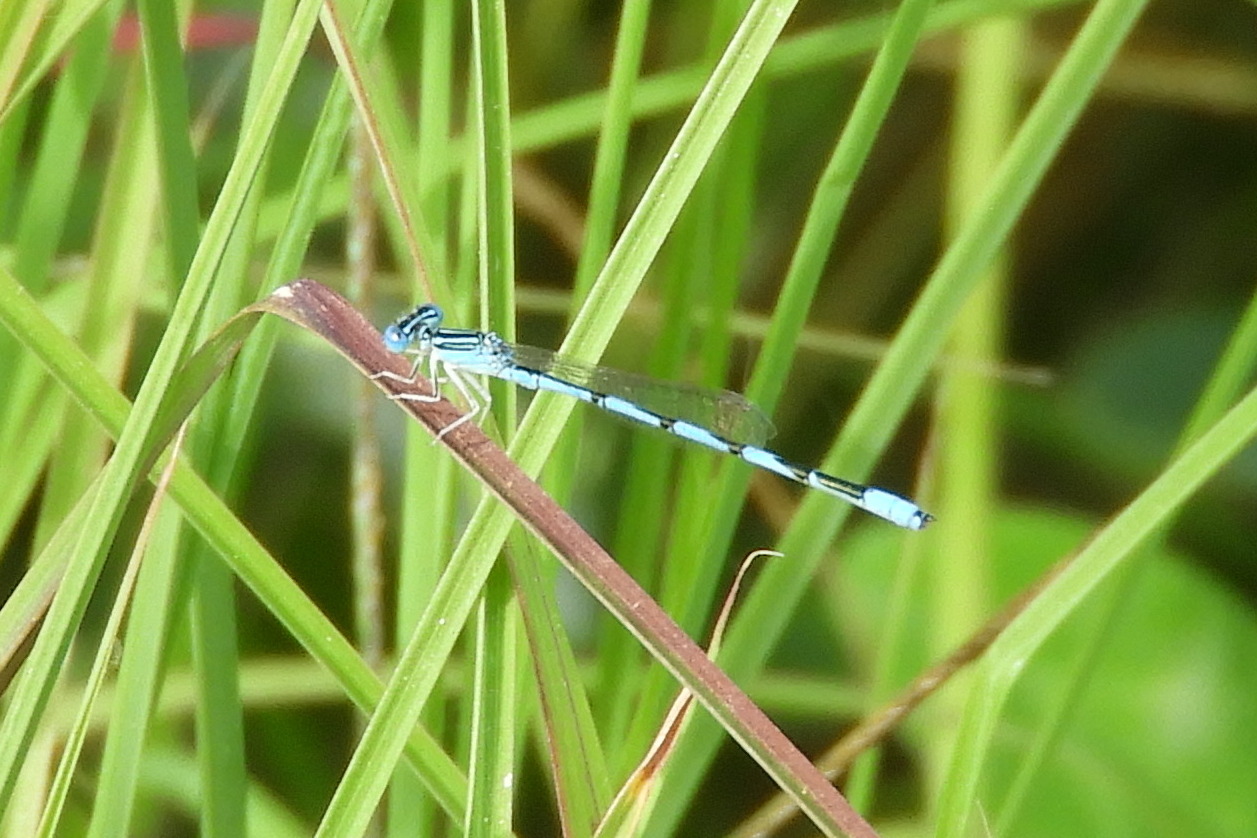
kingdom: Animalia
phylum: Arthropoda
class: Insecta
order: Odonata
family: Coenagrionidae
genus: Enallagma
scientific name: Enallagma basidens
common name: Double-striped bluet
